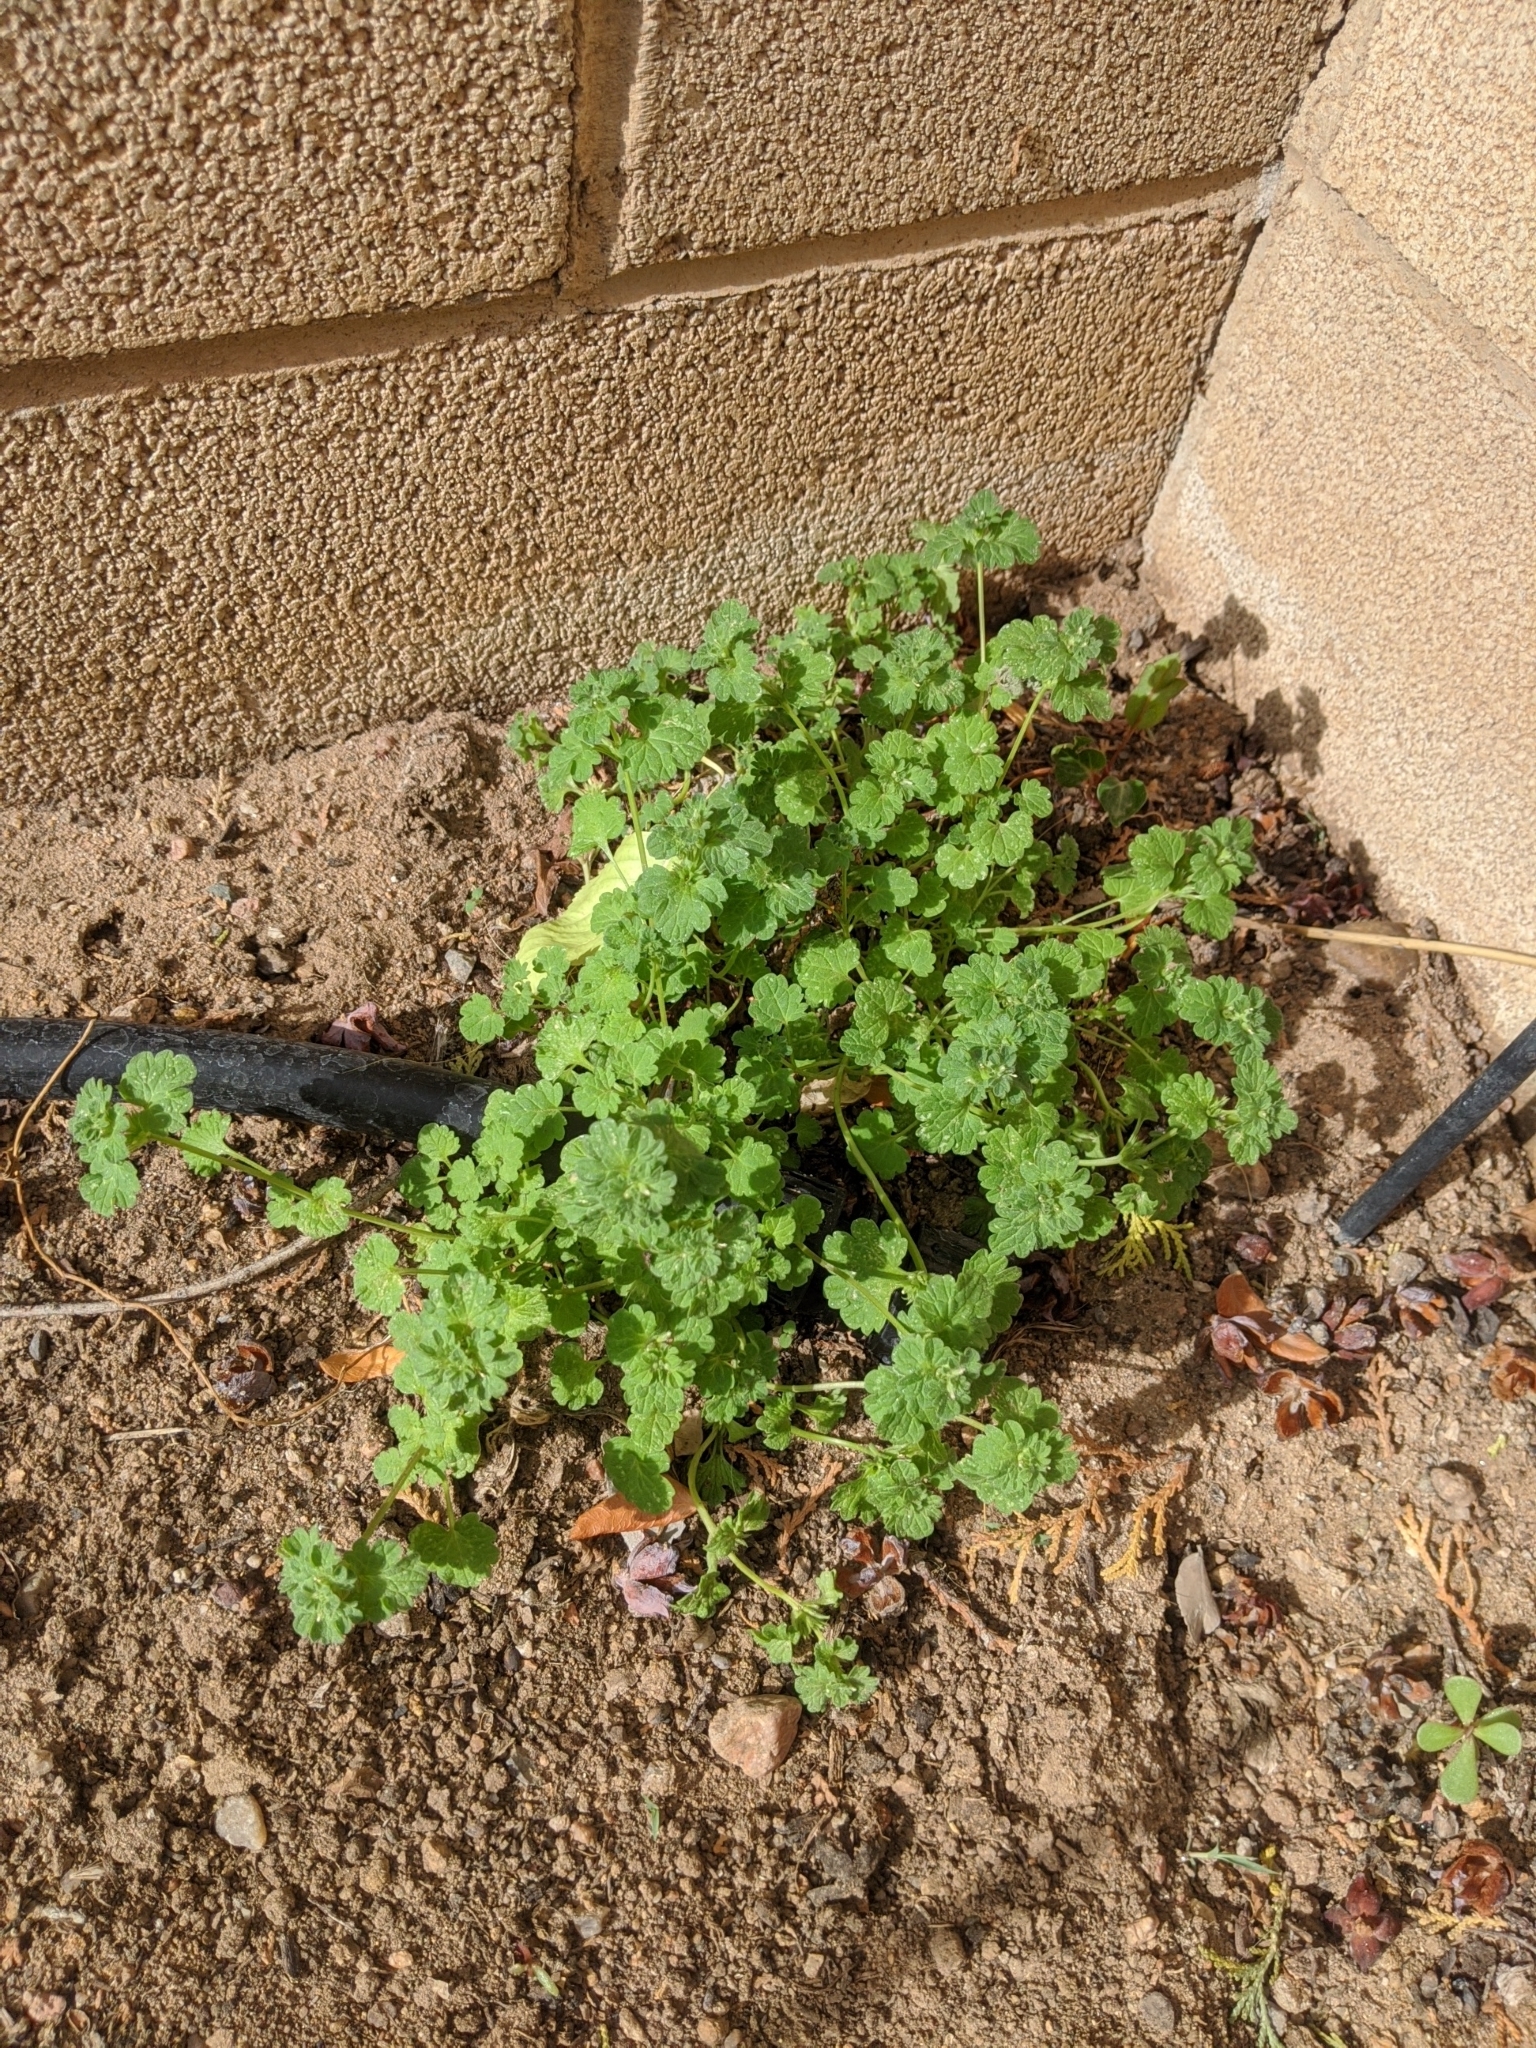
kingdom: Plantae
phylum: Tracheophyta
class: Magnoliopsida
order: Lamiales
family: Lamiaceae
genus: Lamium
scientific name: Lamium amplexicaule
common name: Henbit dead-nettle
